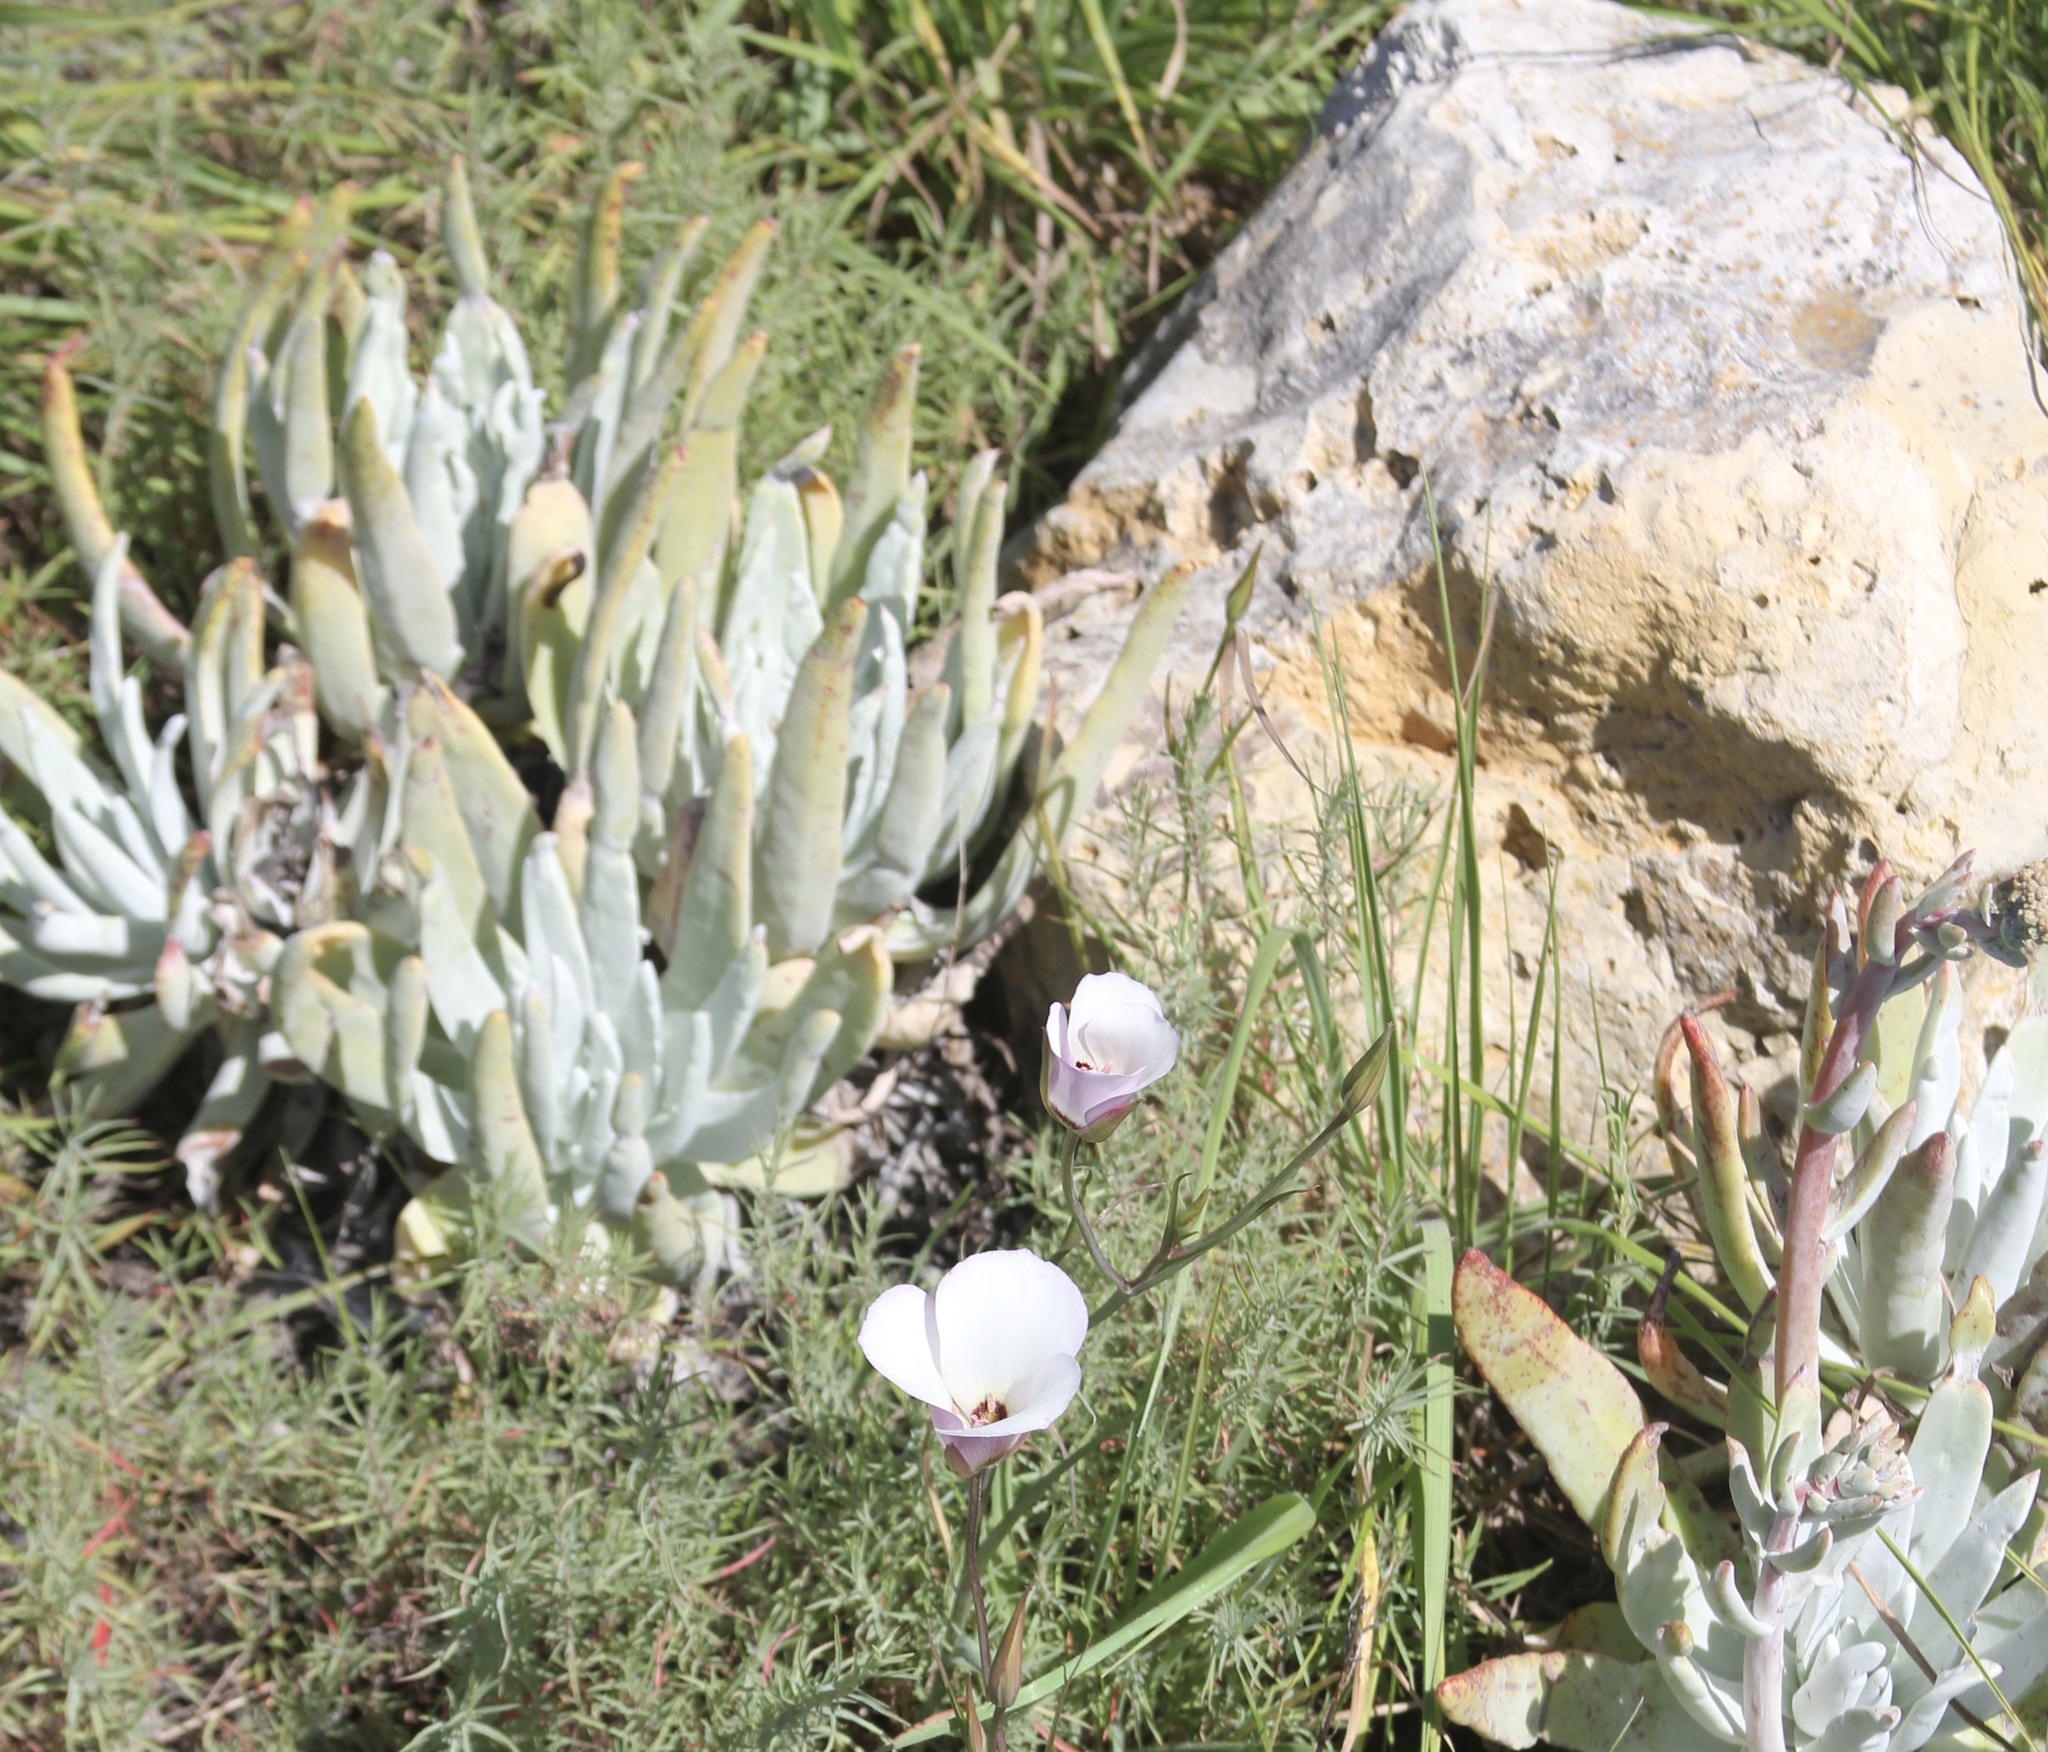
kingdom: Plantae
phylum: Tracheophyta
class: Magnoliopsida
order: Saxifragales
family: Crassulaceae
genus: Dudleya
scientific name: Dudleya virens
